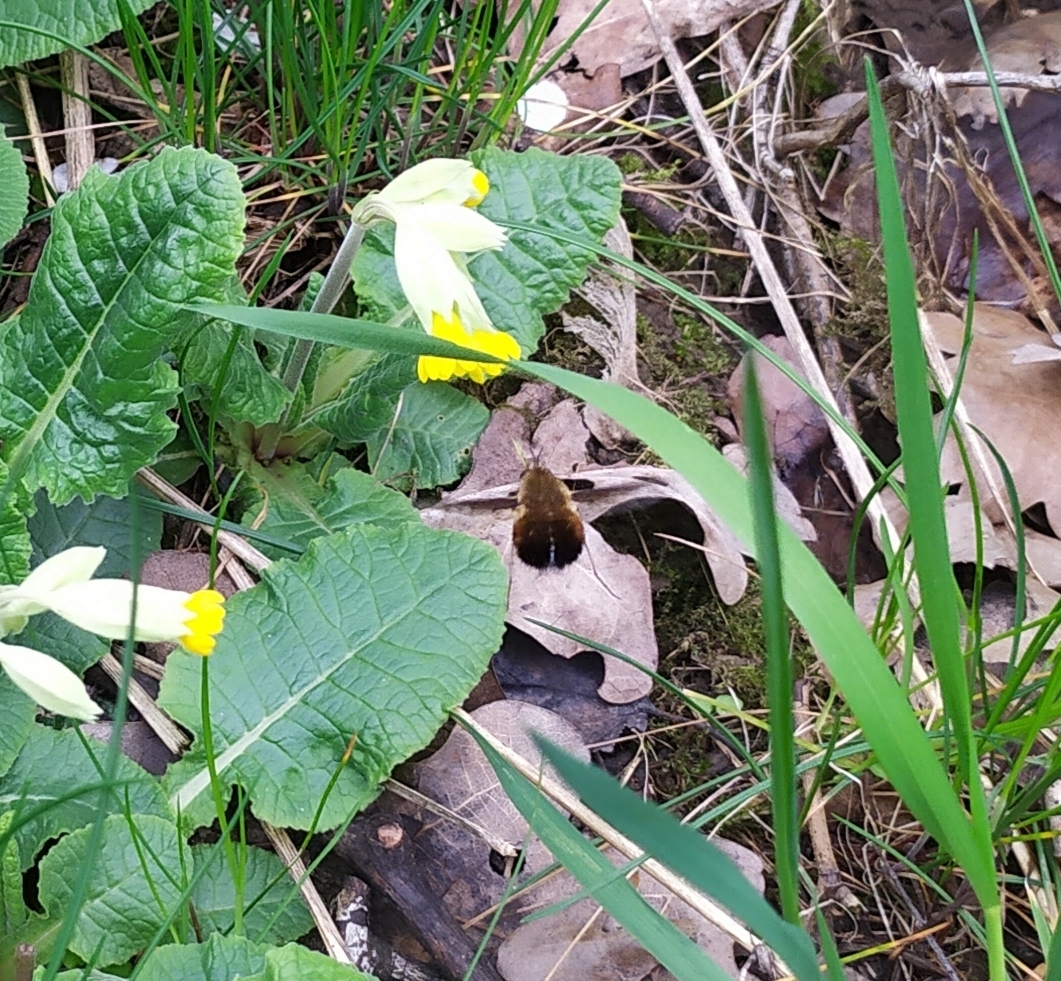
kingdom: Animalia
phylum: Arthropoda
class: Insecta
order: Diptera
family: Bombyliidae
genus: Bombylius
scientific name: Bombylius discolor
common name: Dotted bee-fly
